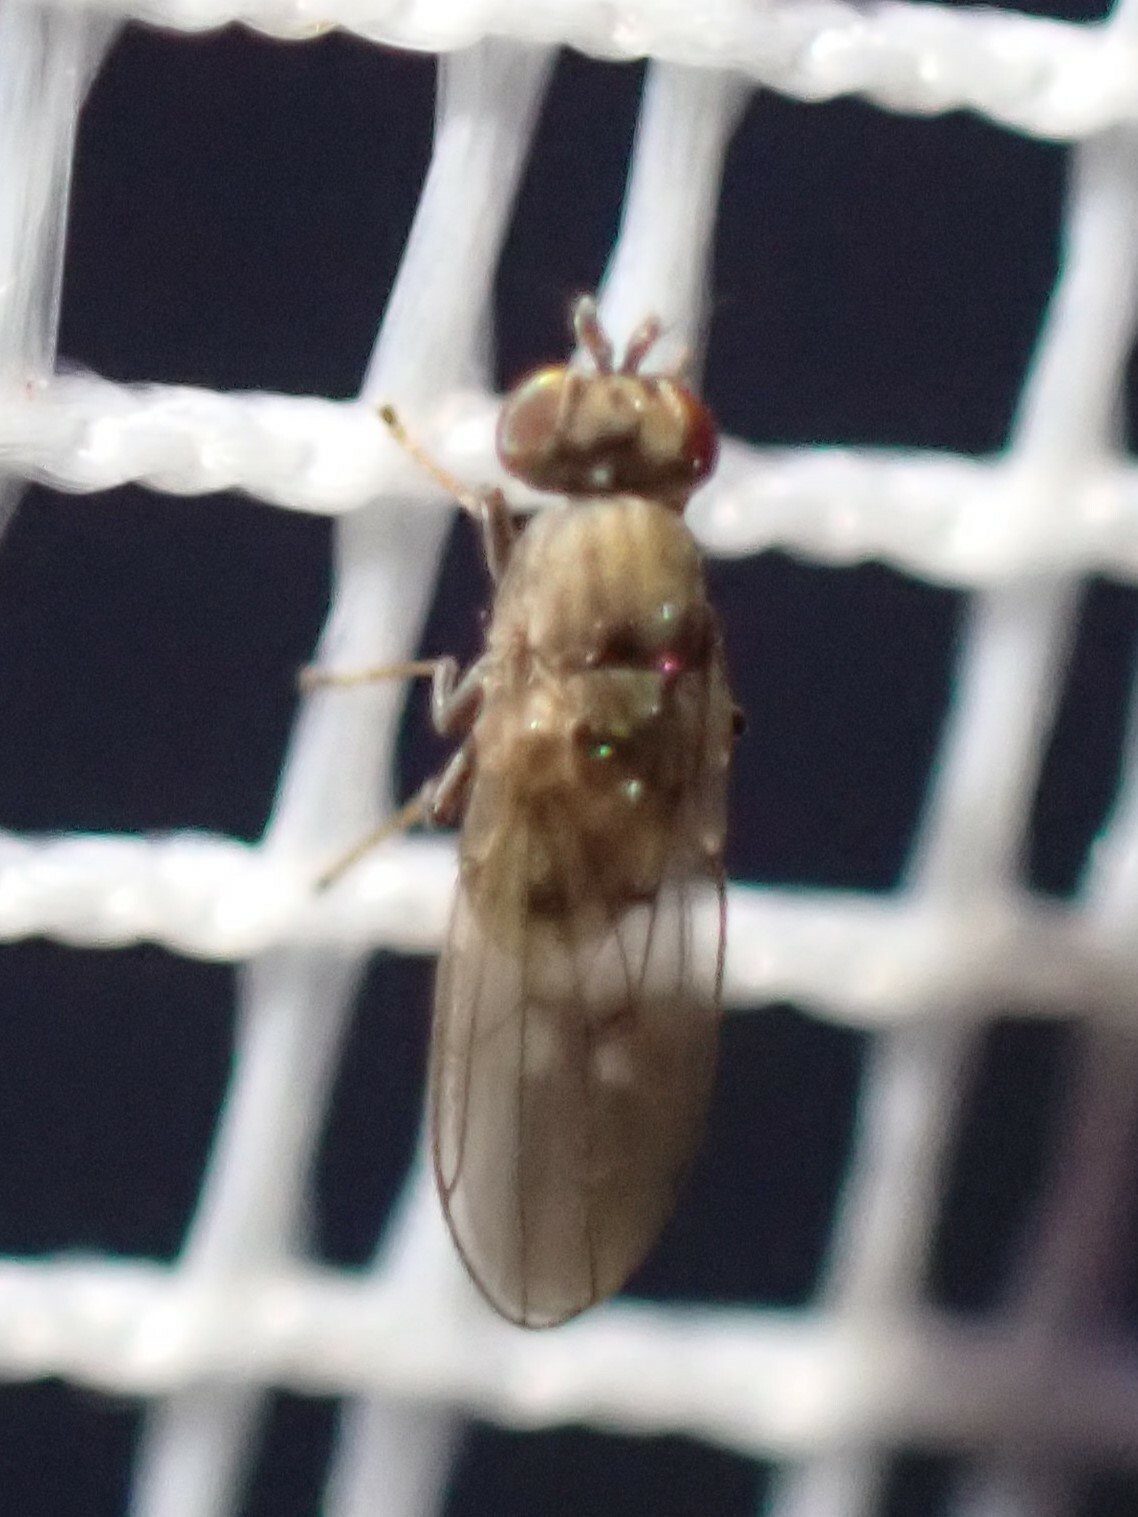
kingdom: Animalia
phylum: Arthropoda
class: Insecta
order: Diptera
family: Ephydridae
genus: Philygria
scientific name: Philygria debilis
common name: Brine fly
